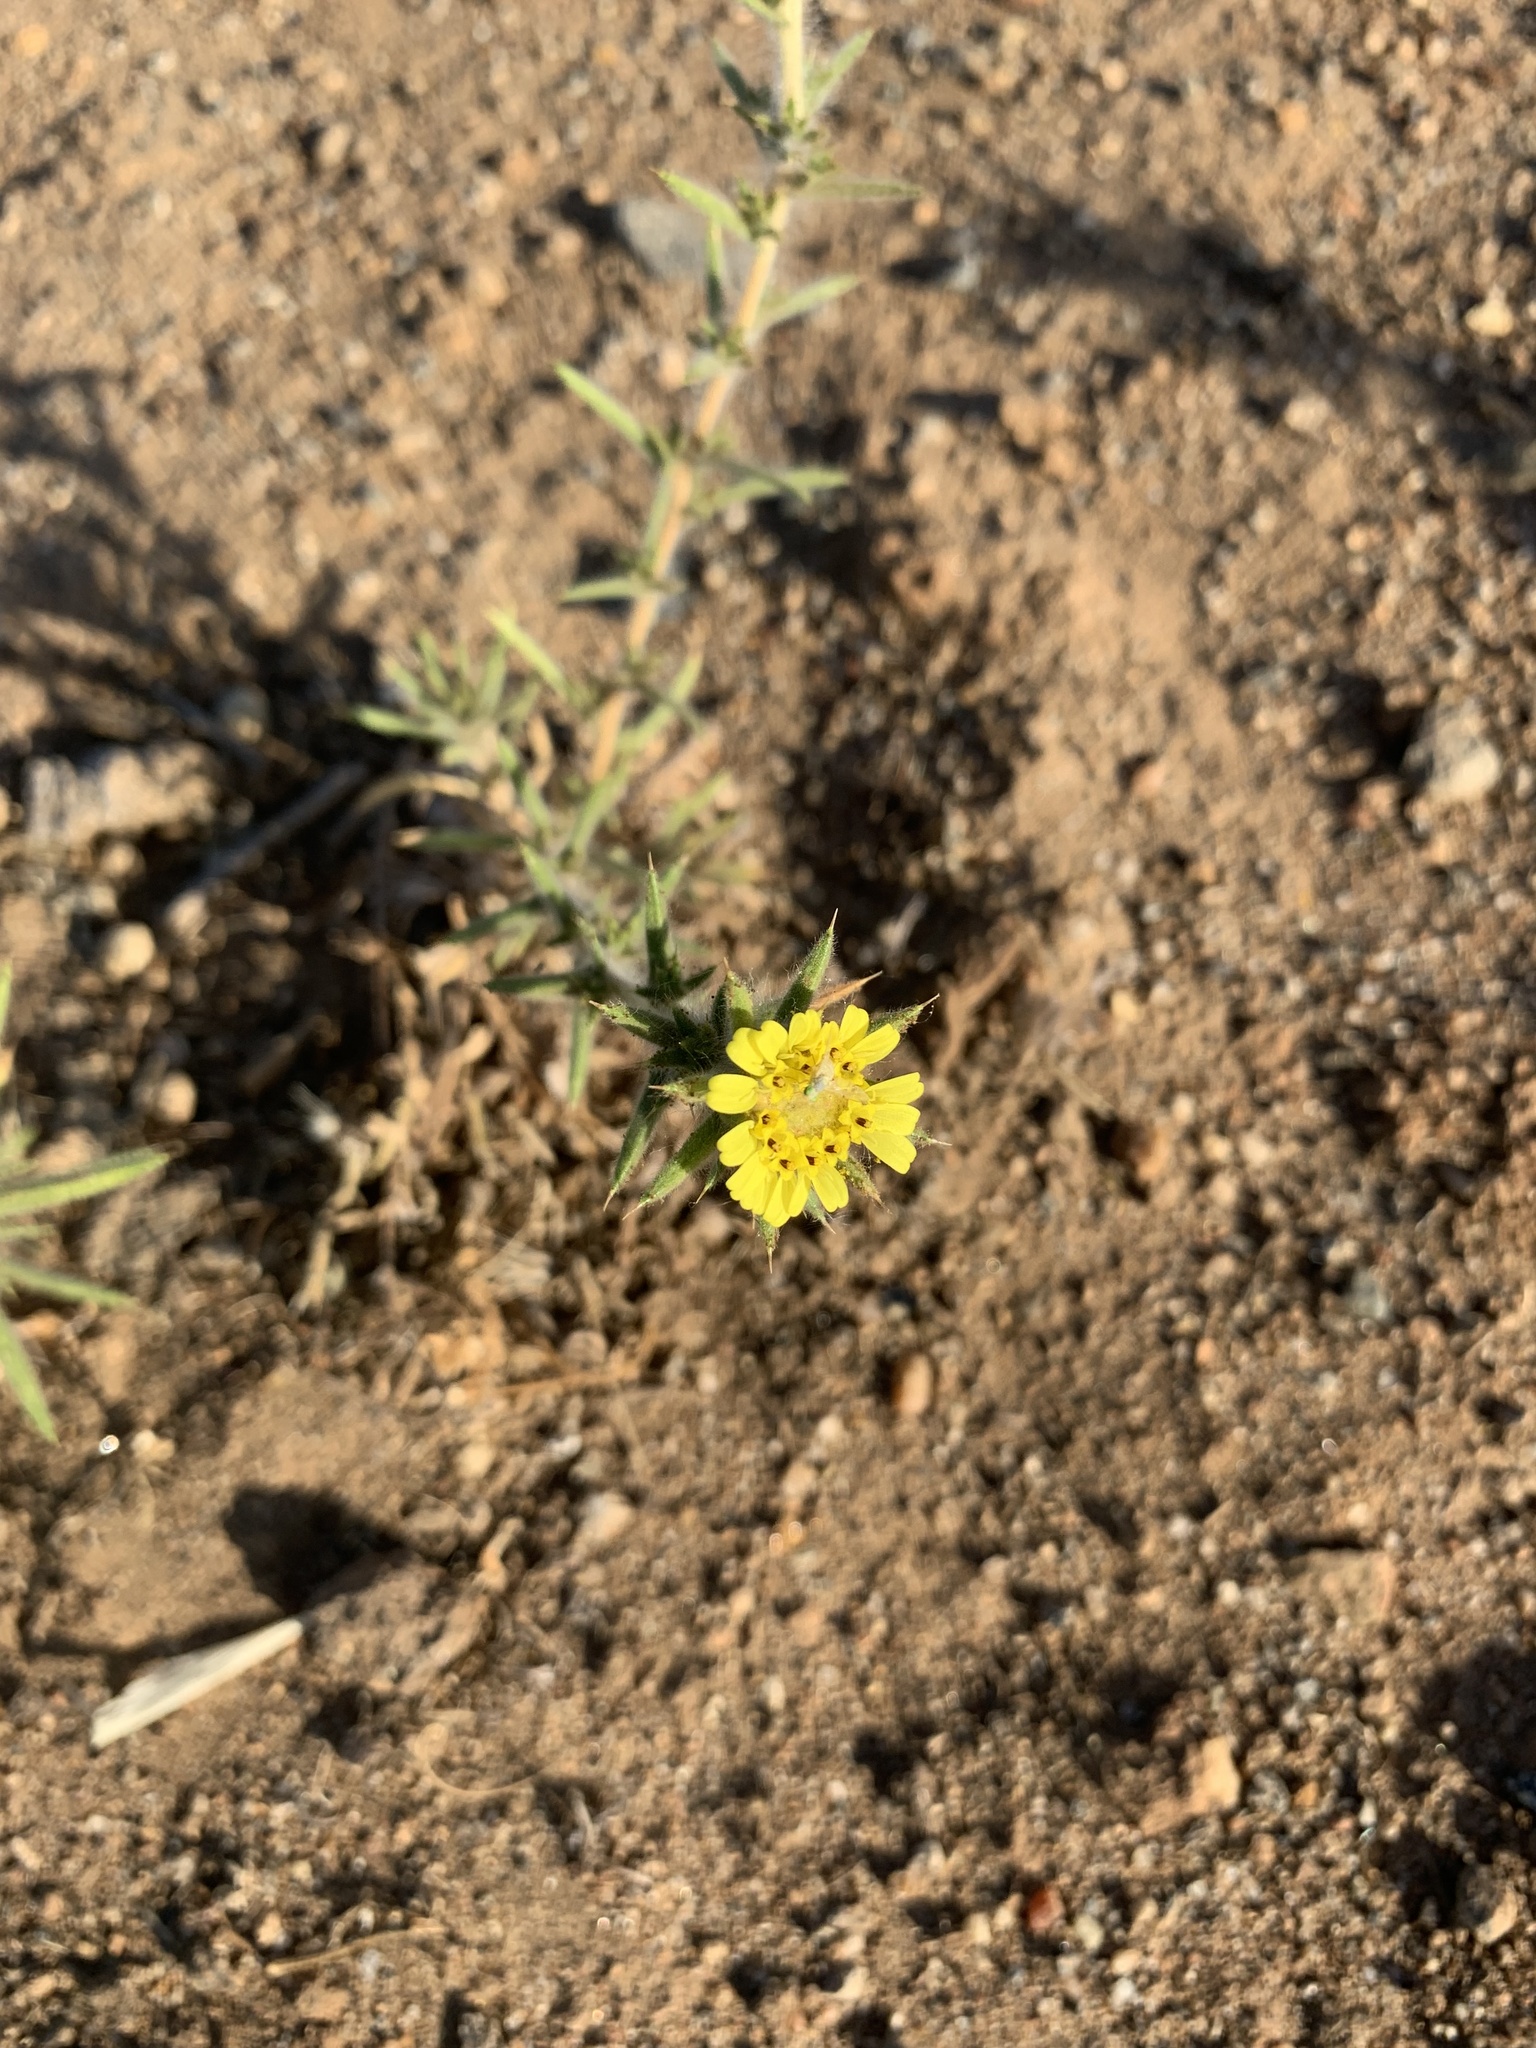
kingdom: Plantae
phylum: Tracheophyta
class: Magnoliopsida
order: Asterales
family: Asteraceae
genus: Centromadia
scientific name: Centromadia pungens
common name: Common spikeweed
